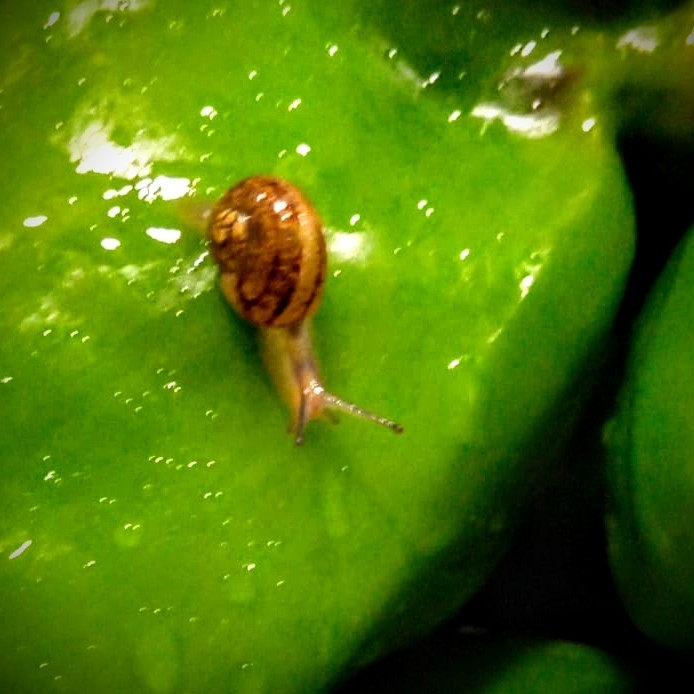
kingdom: Animalia
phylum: Mollusca
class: Gastropoda
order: Stylommatophora
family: Helicidae
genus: Cornu
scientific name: Cornu aspersum
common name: Brown garden snail
